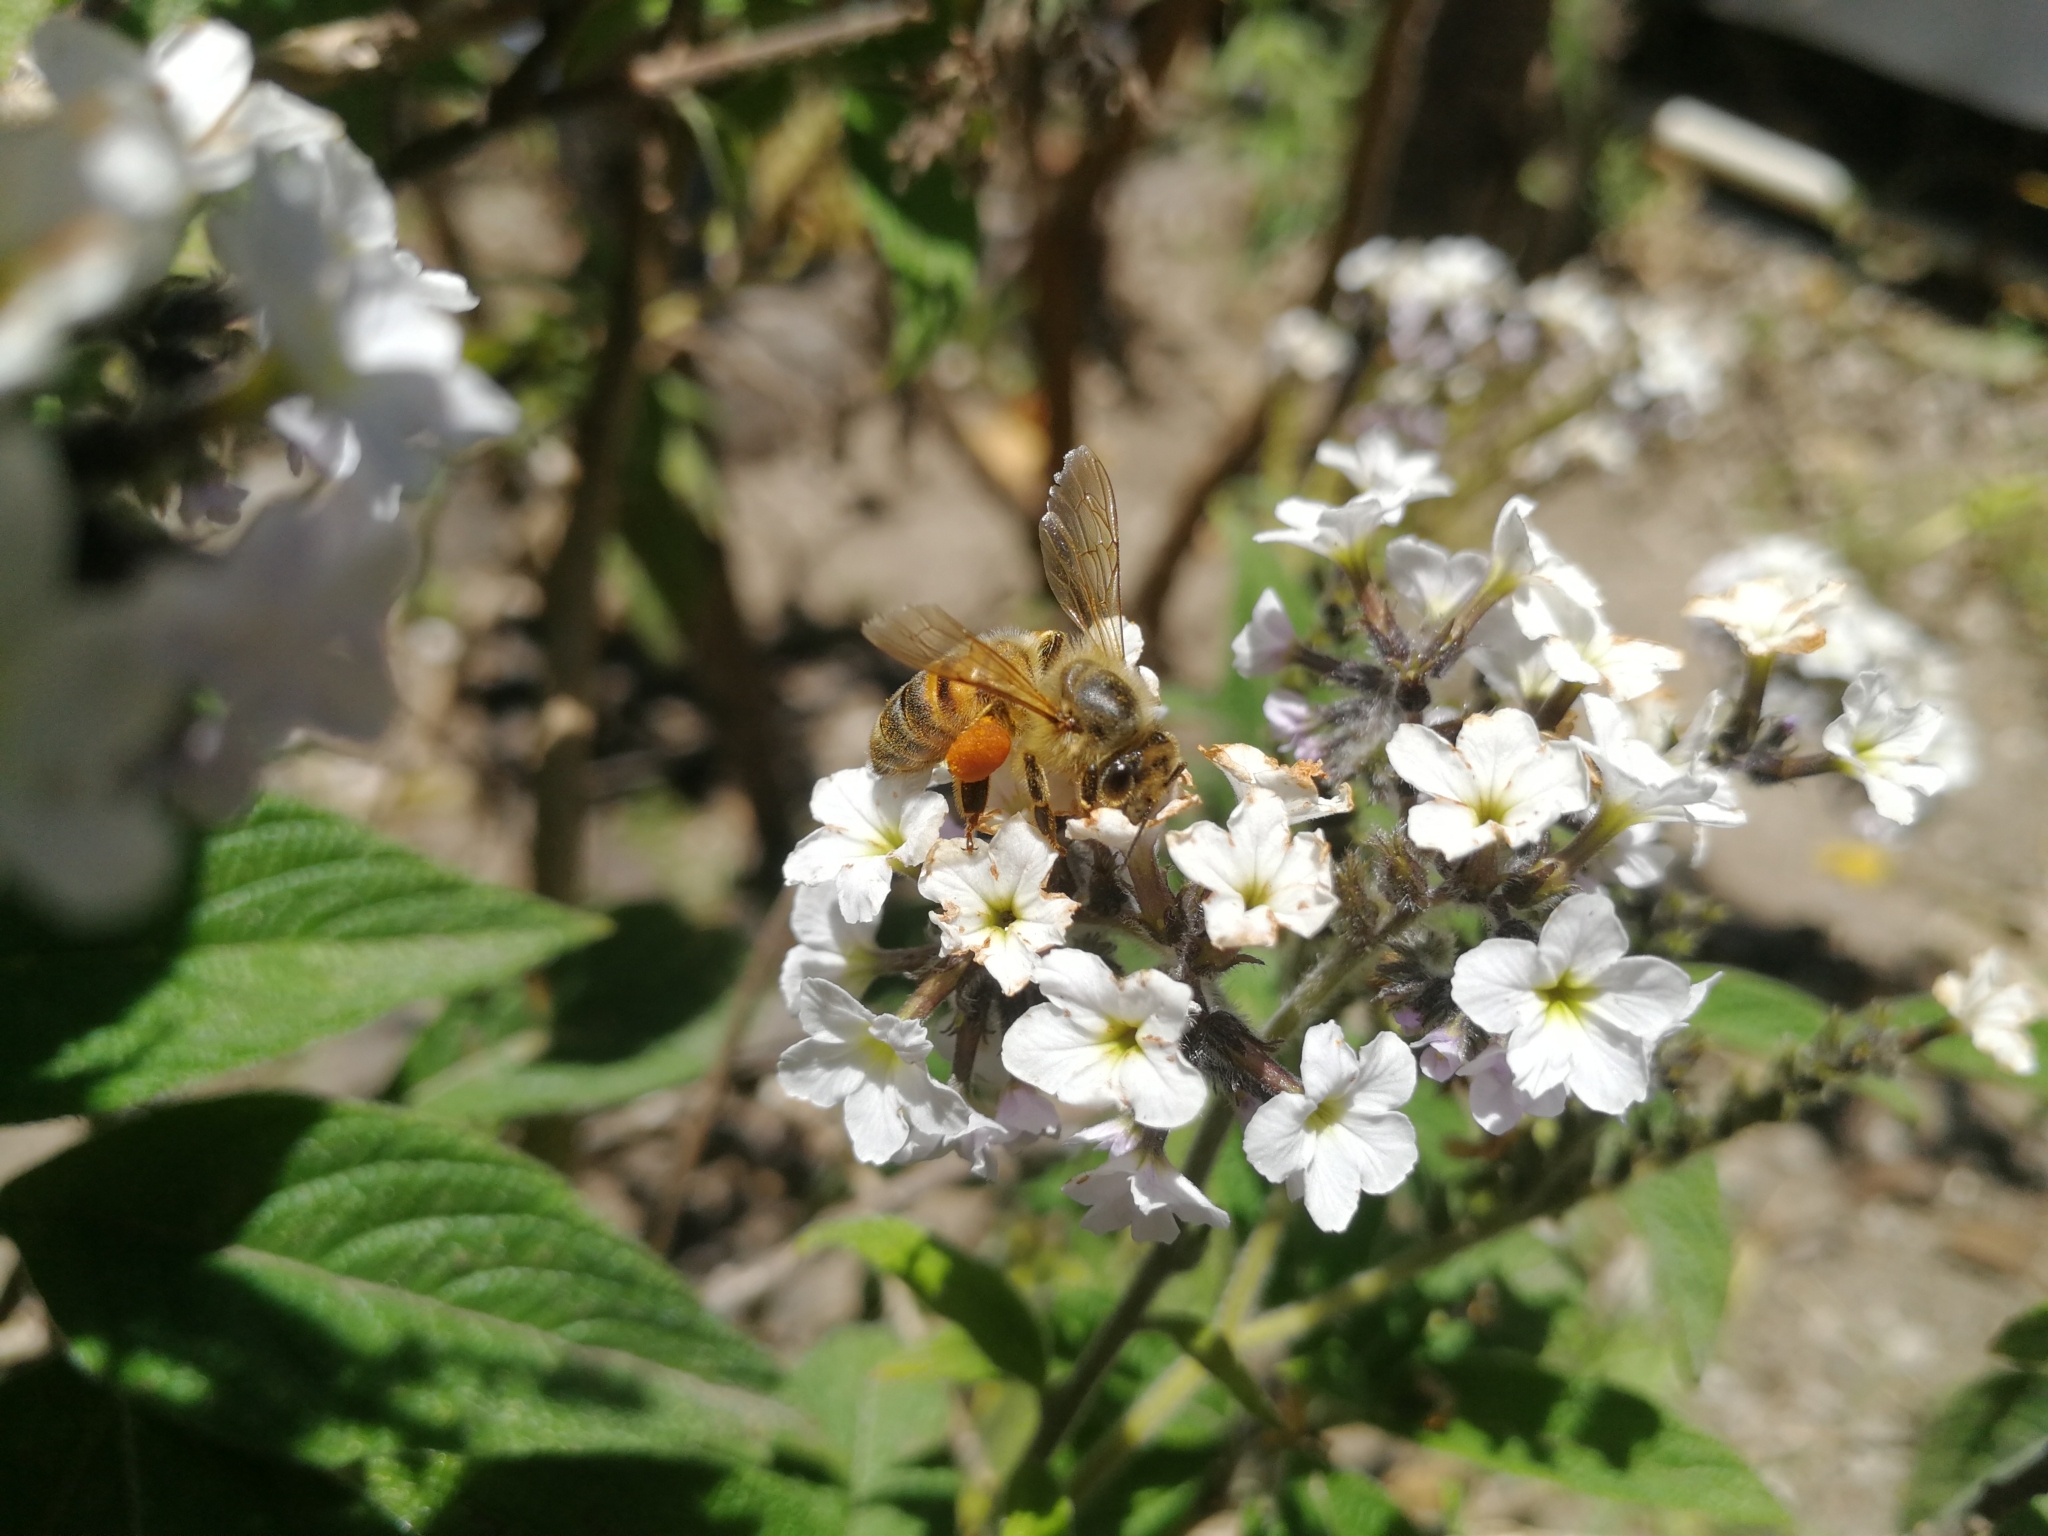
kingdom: Animalia
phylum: Arthropoda
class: Insecta
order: Hymenoptera
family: Apidae
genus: Apis
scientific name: Apis mellifera
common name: Honey bee
